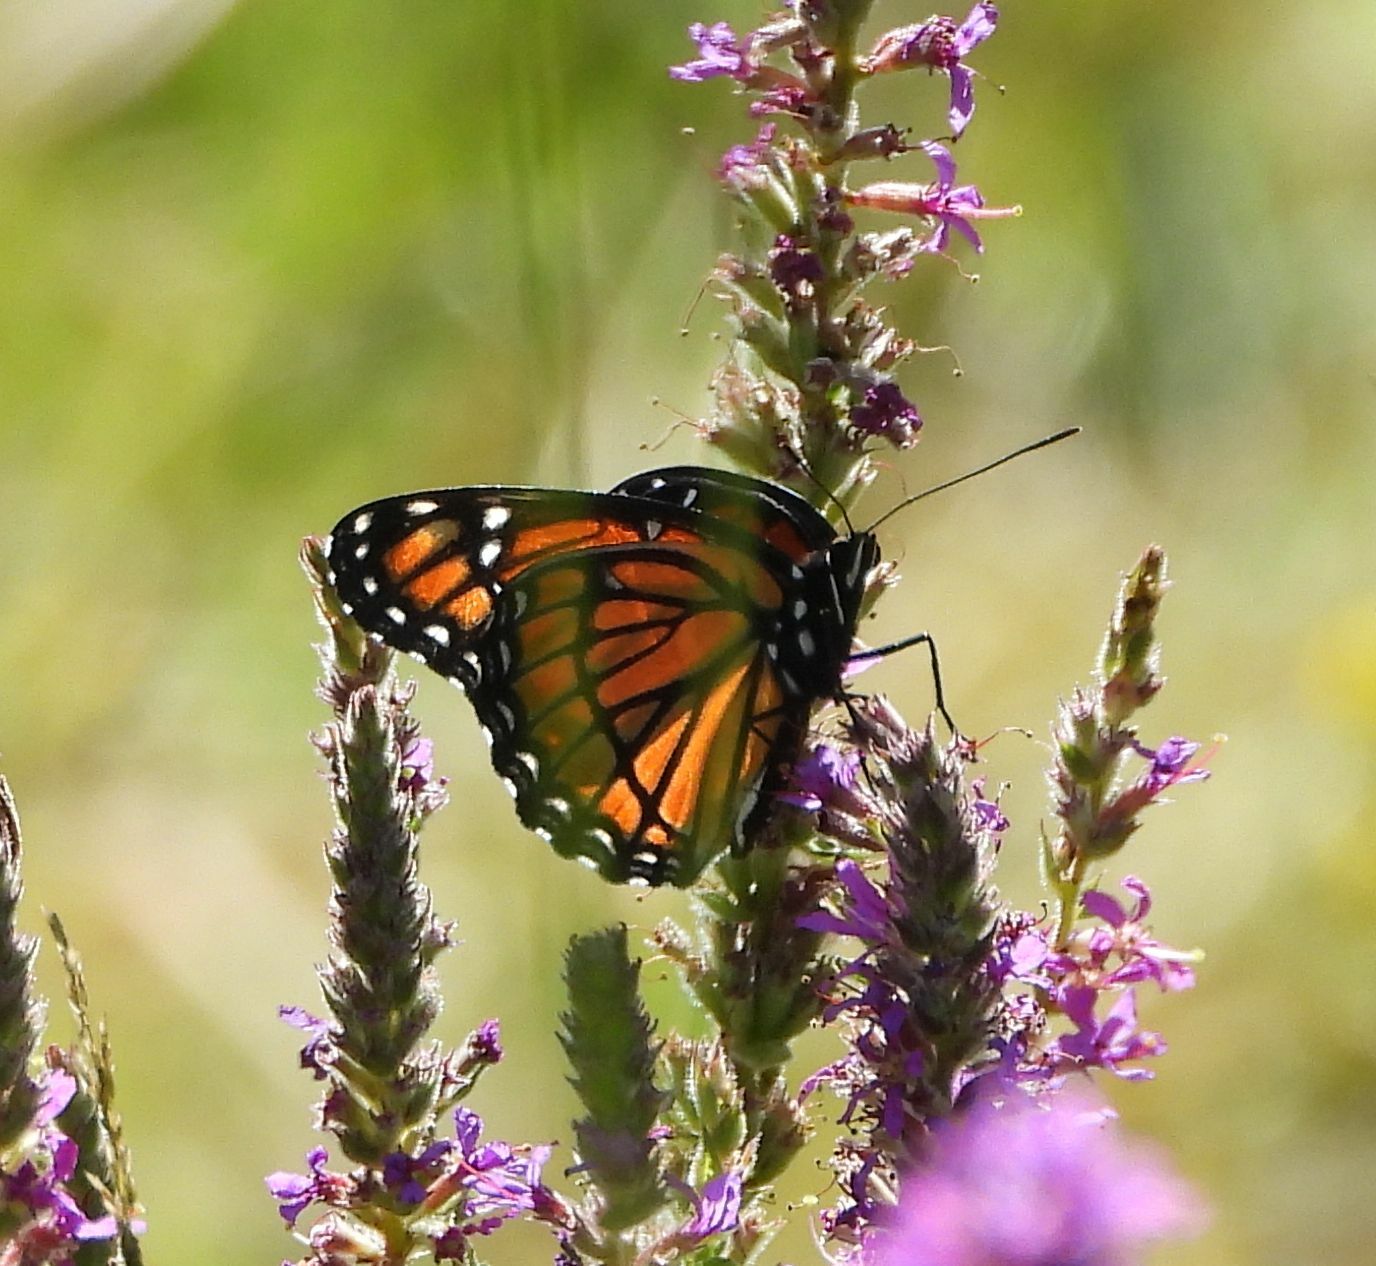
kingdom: Animalia
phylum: Arthropoda
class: Insecta
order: Lepidoptera
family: Nymphalidae
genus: Limenitis
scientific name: Limenitis archippus
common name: Viceroy
